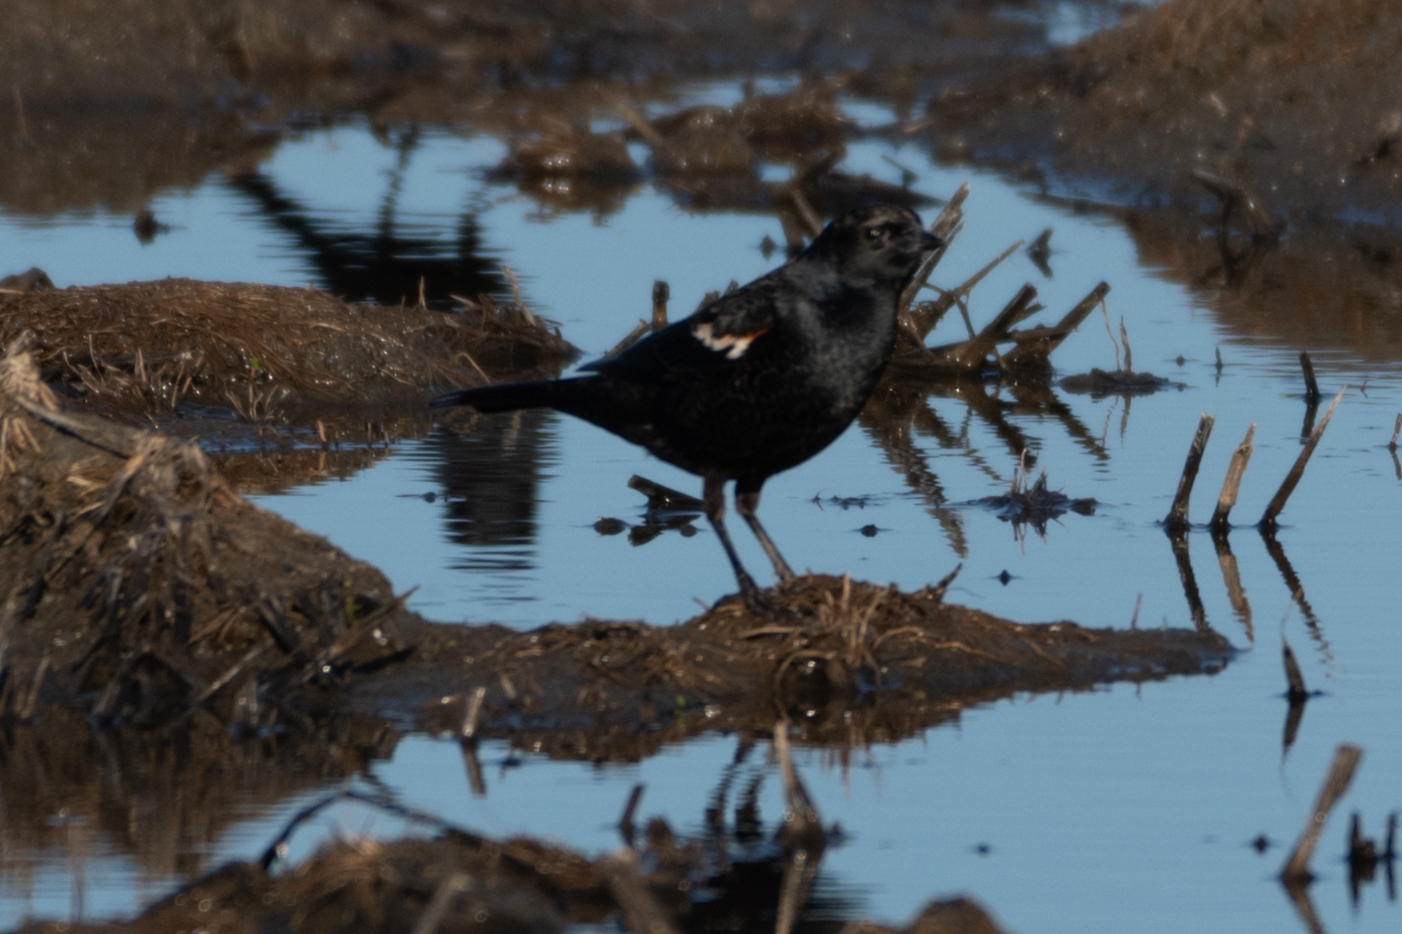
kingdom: Animalia
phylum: Chordata
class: Aves
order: Passeriformes
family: Icteridae
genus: Agelaius
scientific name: Agelaius tricolor
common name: Tricolored blackbird
